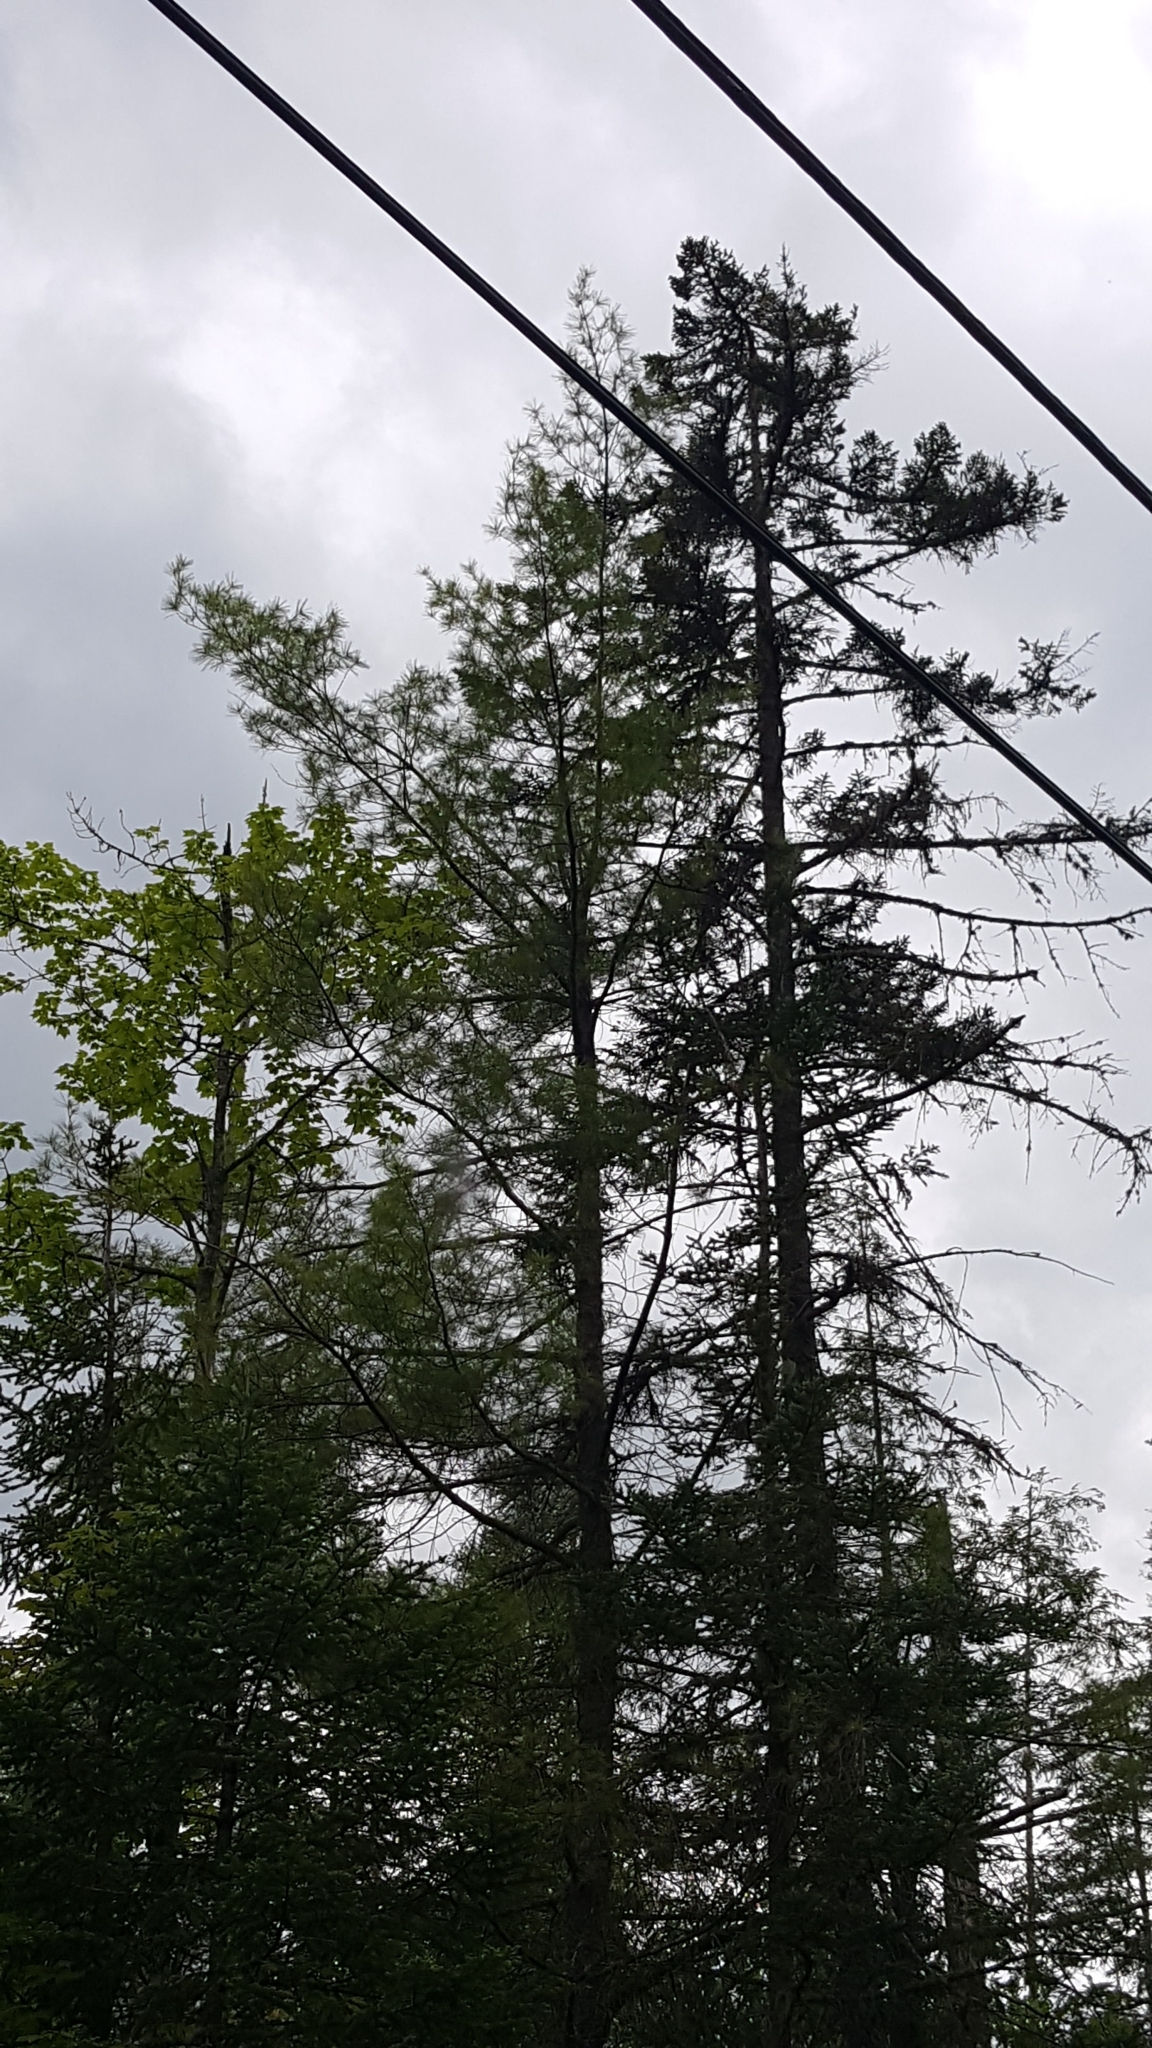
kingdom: Plantae
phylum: Tracheophyta
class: Pinopsida
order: Pinales
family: Pinaceae
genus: Pinus
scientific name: Pinus strobus
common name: Weymouth pine
